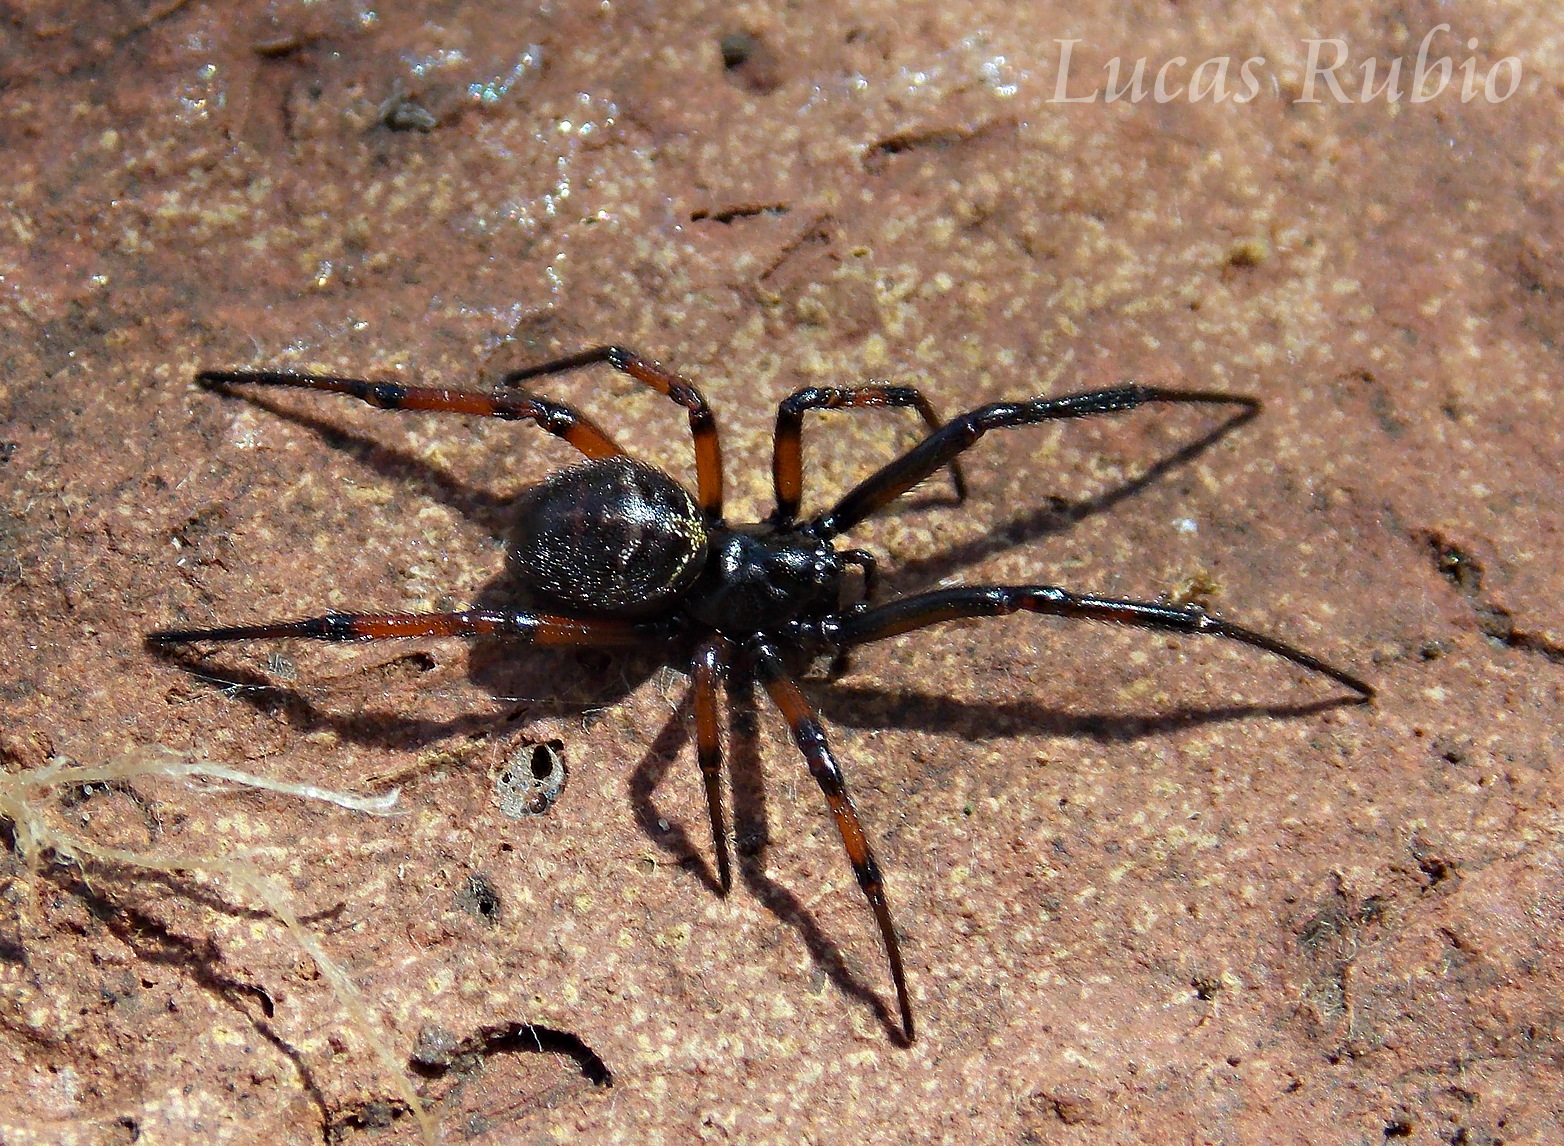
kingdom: Animalia
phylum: Arthropoda
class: Arachnida
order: Araneae
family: Theridiidae
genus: Steatoda
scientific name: Steatoda retorta
